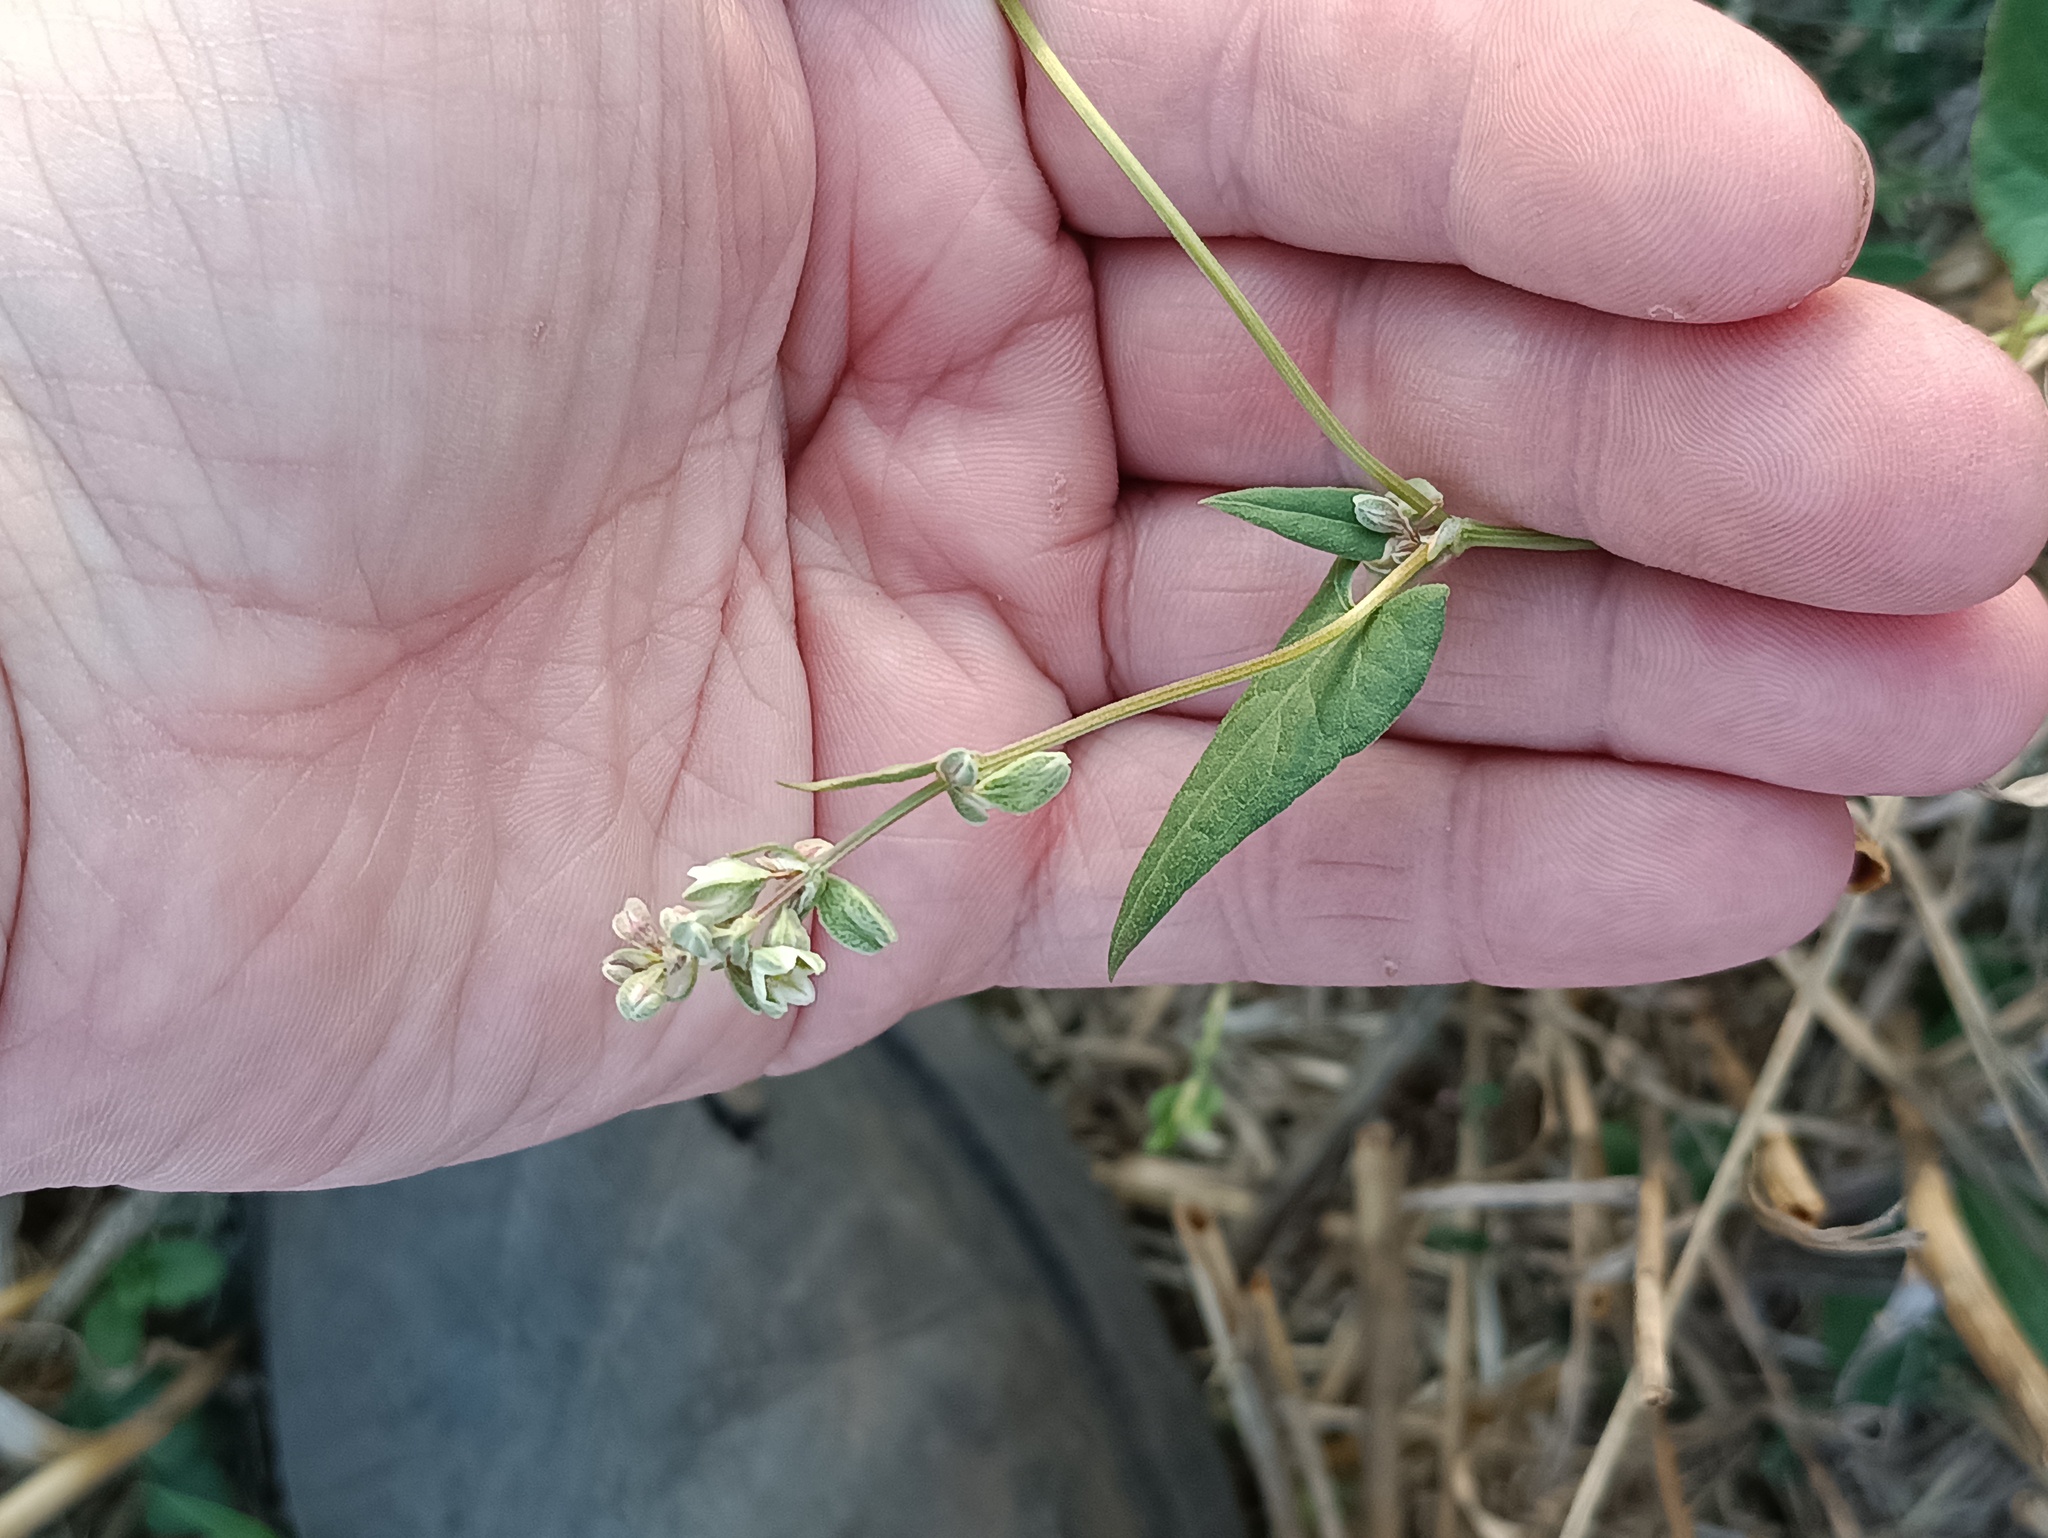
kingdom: Plantae
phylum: Tracheophyta
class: Magnoliopsida
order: Caryophyllales
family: Polygonaceae
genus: Fallopia
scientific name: Fallopia convolvulus
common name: Black bindweed
